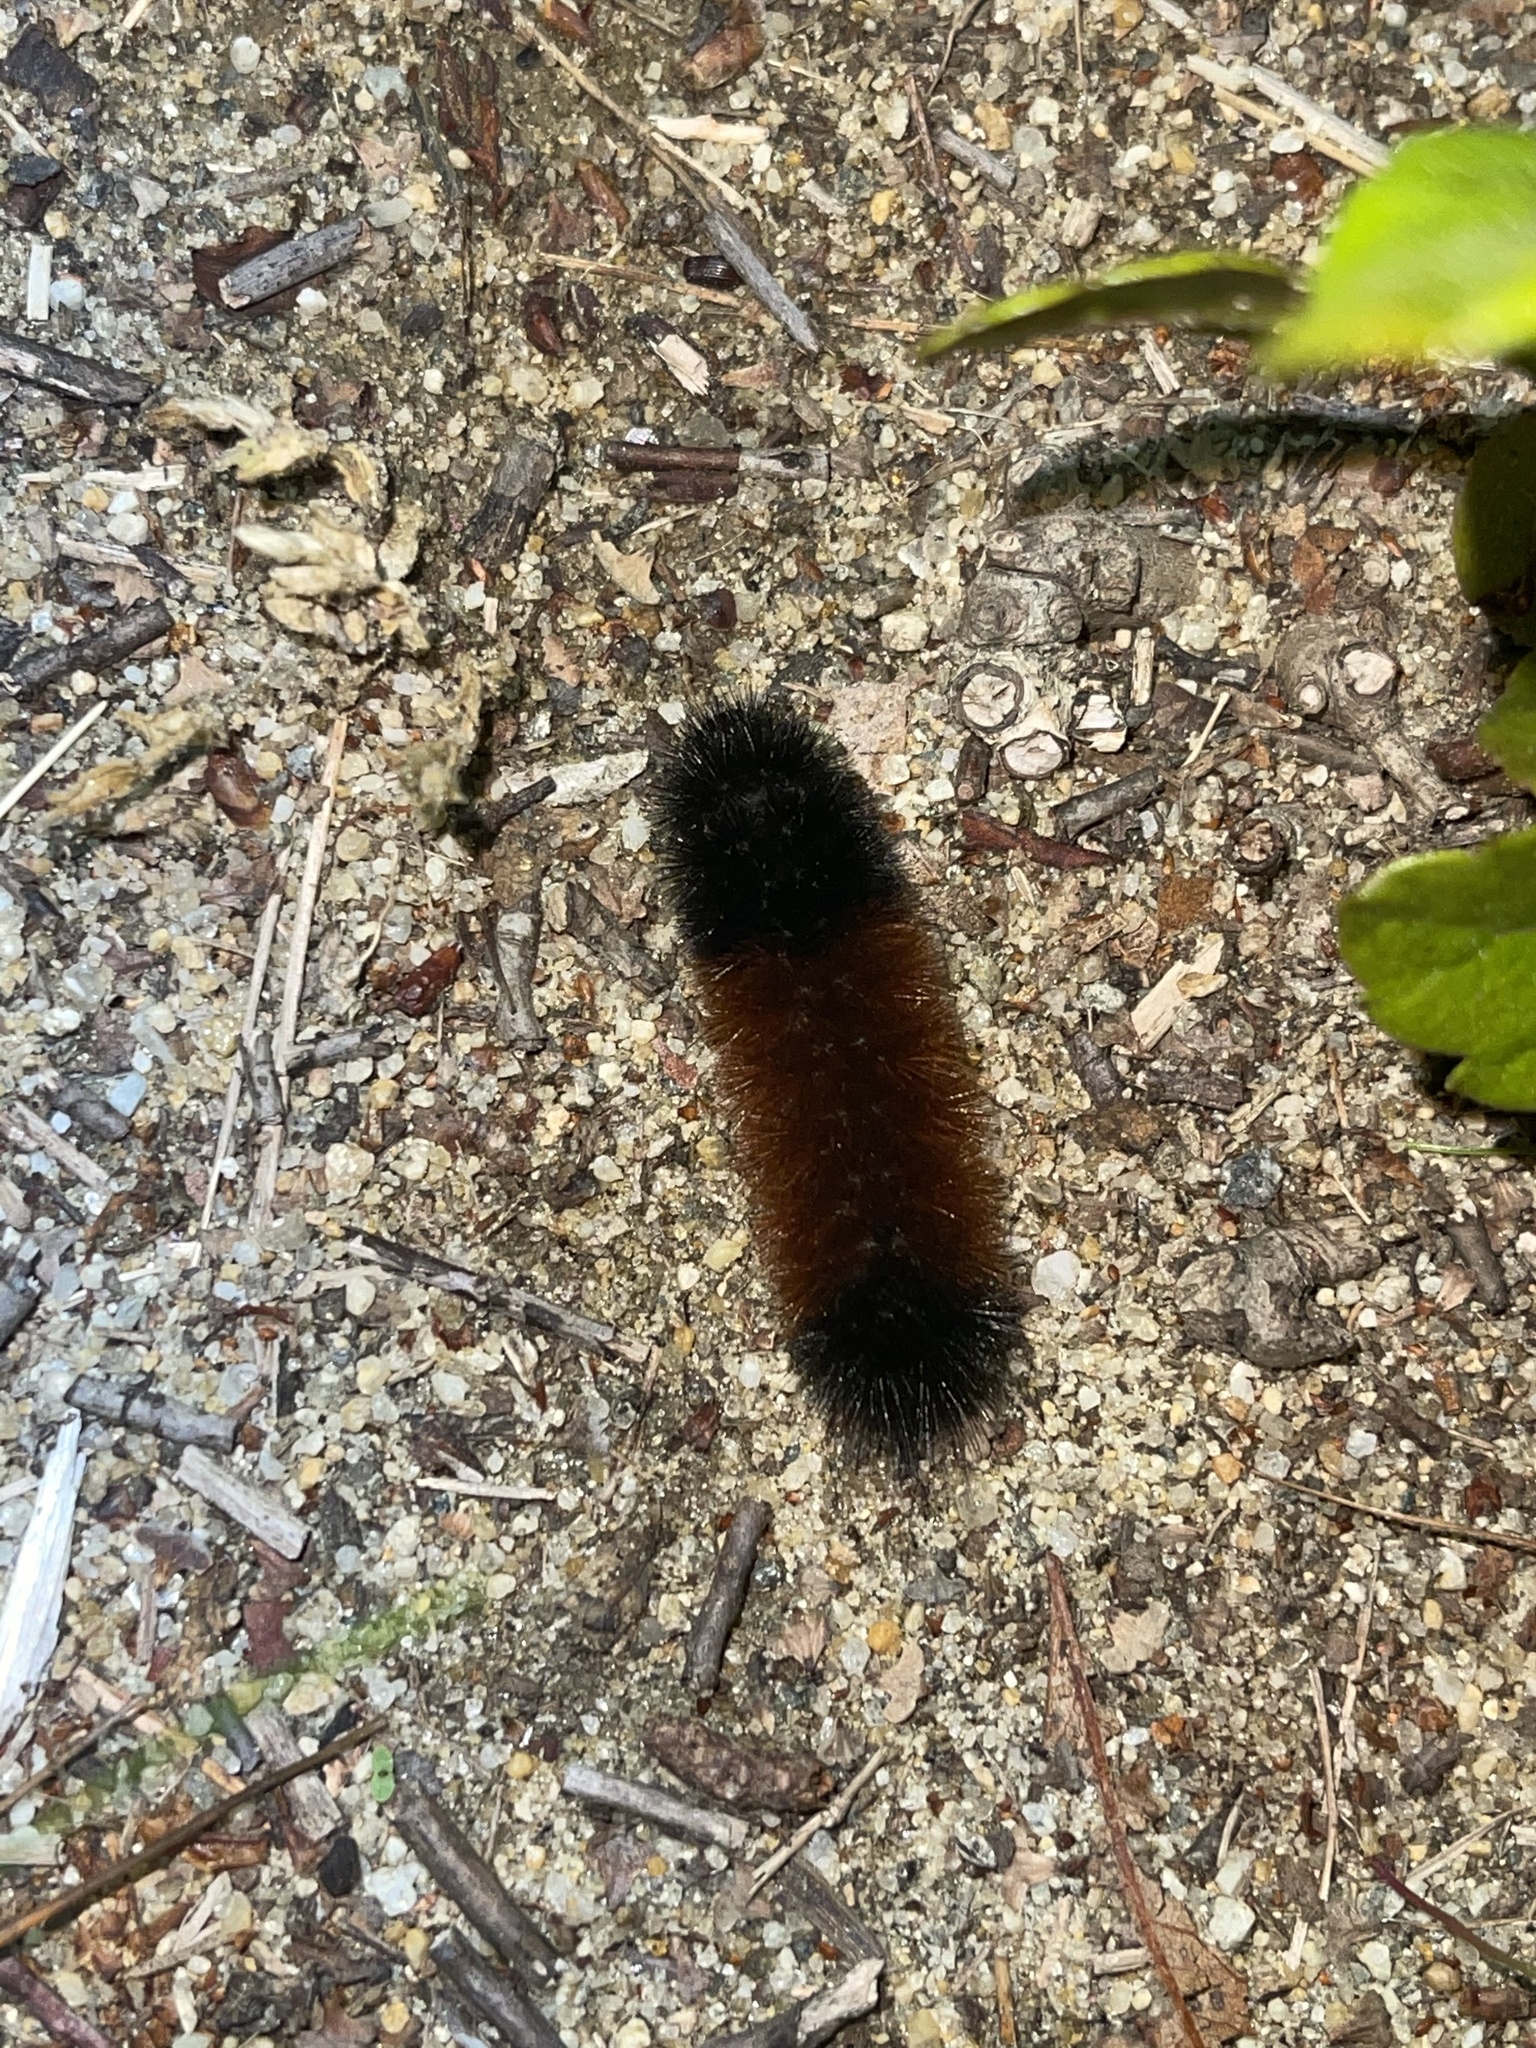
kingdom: Animalia
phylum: Arthropoda
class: Insecta
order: Lepidoptera
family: Erebidae
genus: Pyrrharctia
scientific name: Pyrrharctia isabella
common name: Isabella tiger moth
